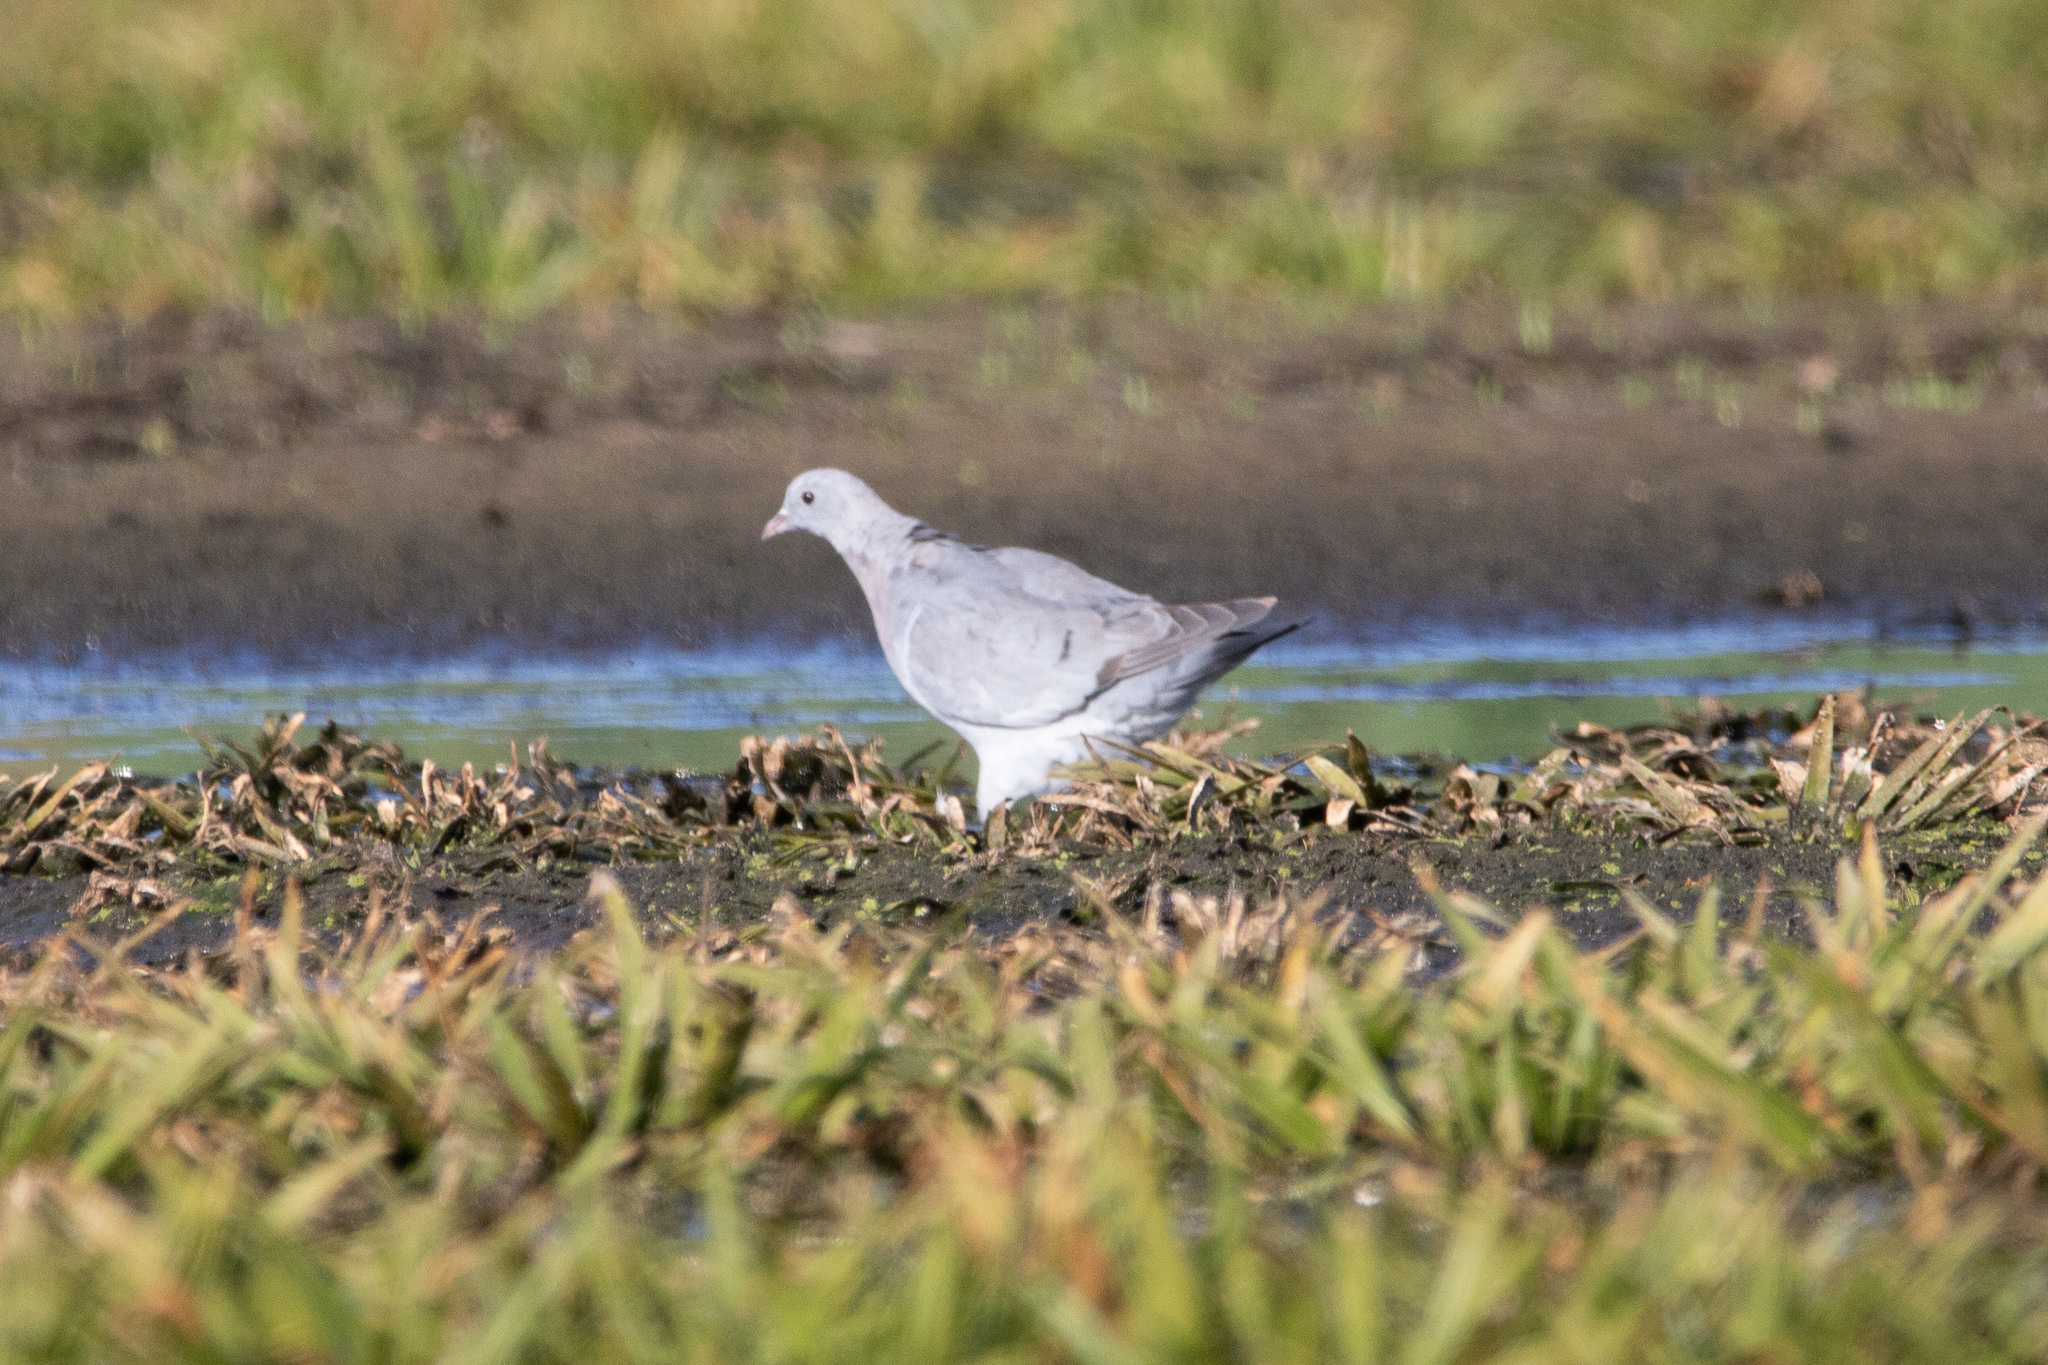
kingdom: Animalia
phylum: Chordata
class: Aves
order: Columbiformes
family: Columbidae
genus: Columba
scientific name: Columba oenas
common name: Stock dove
